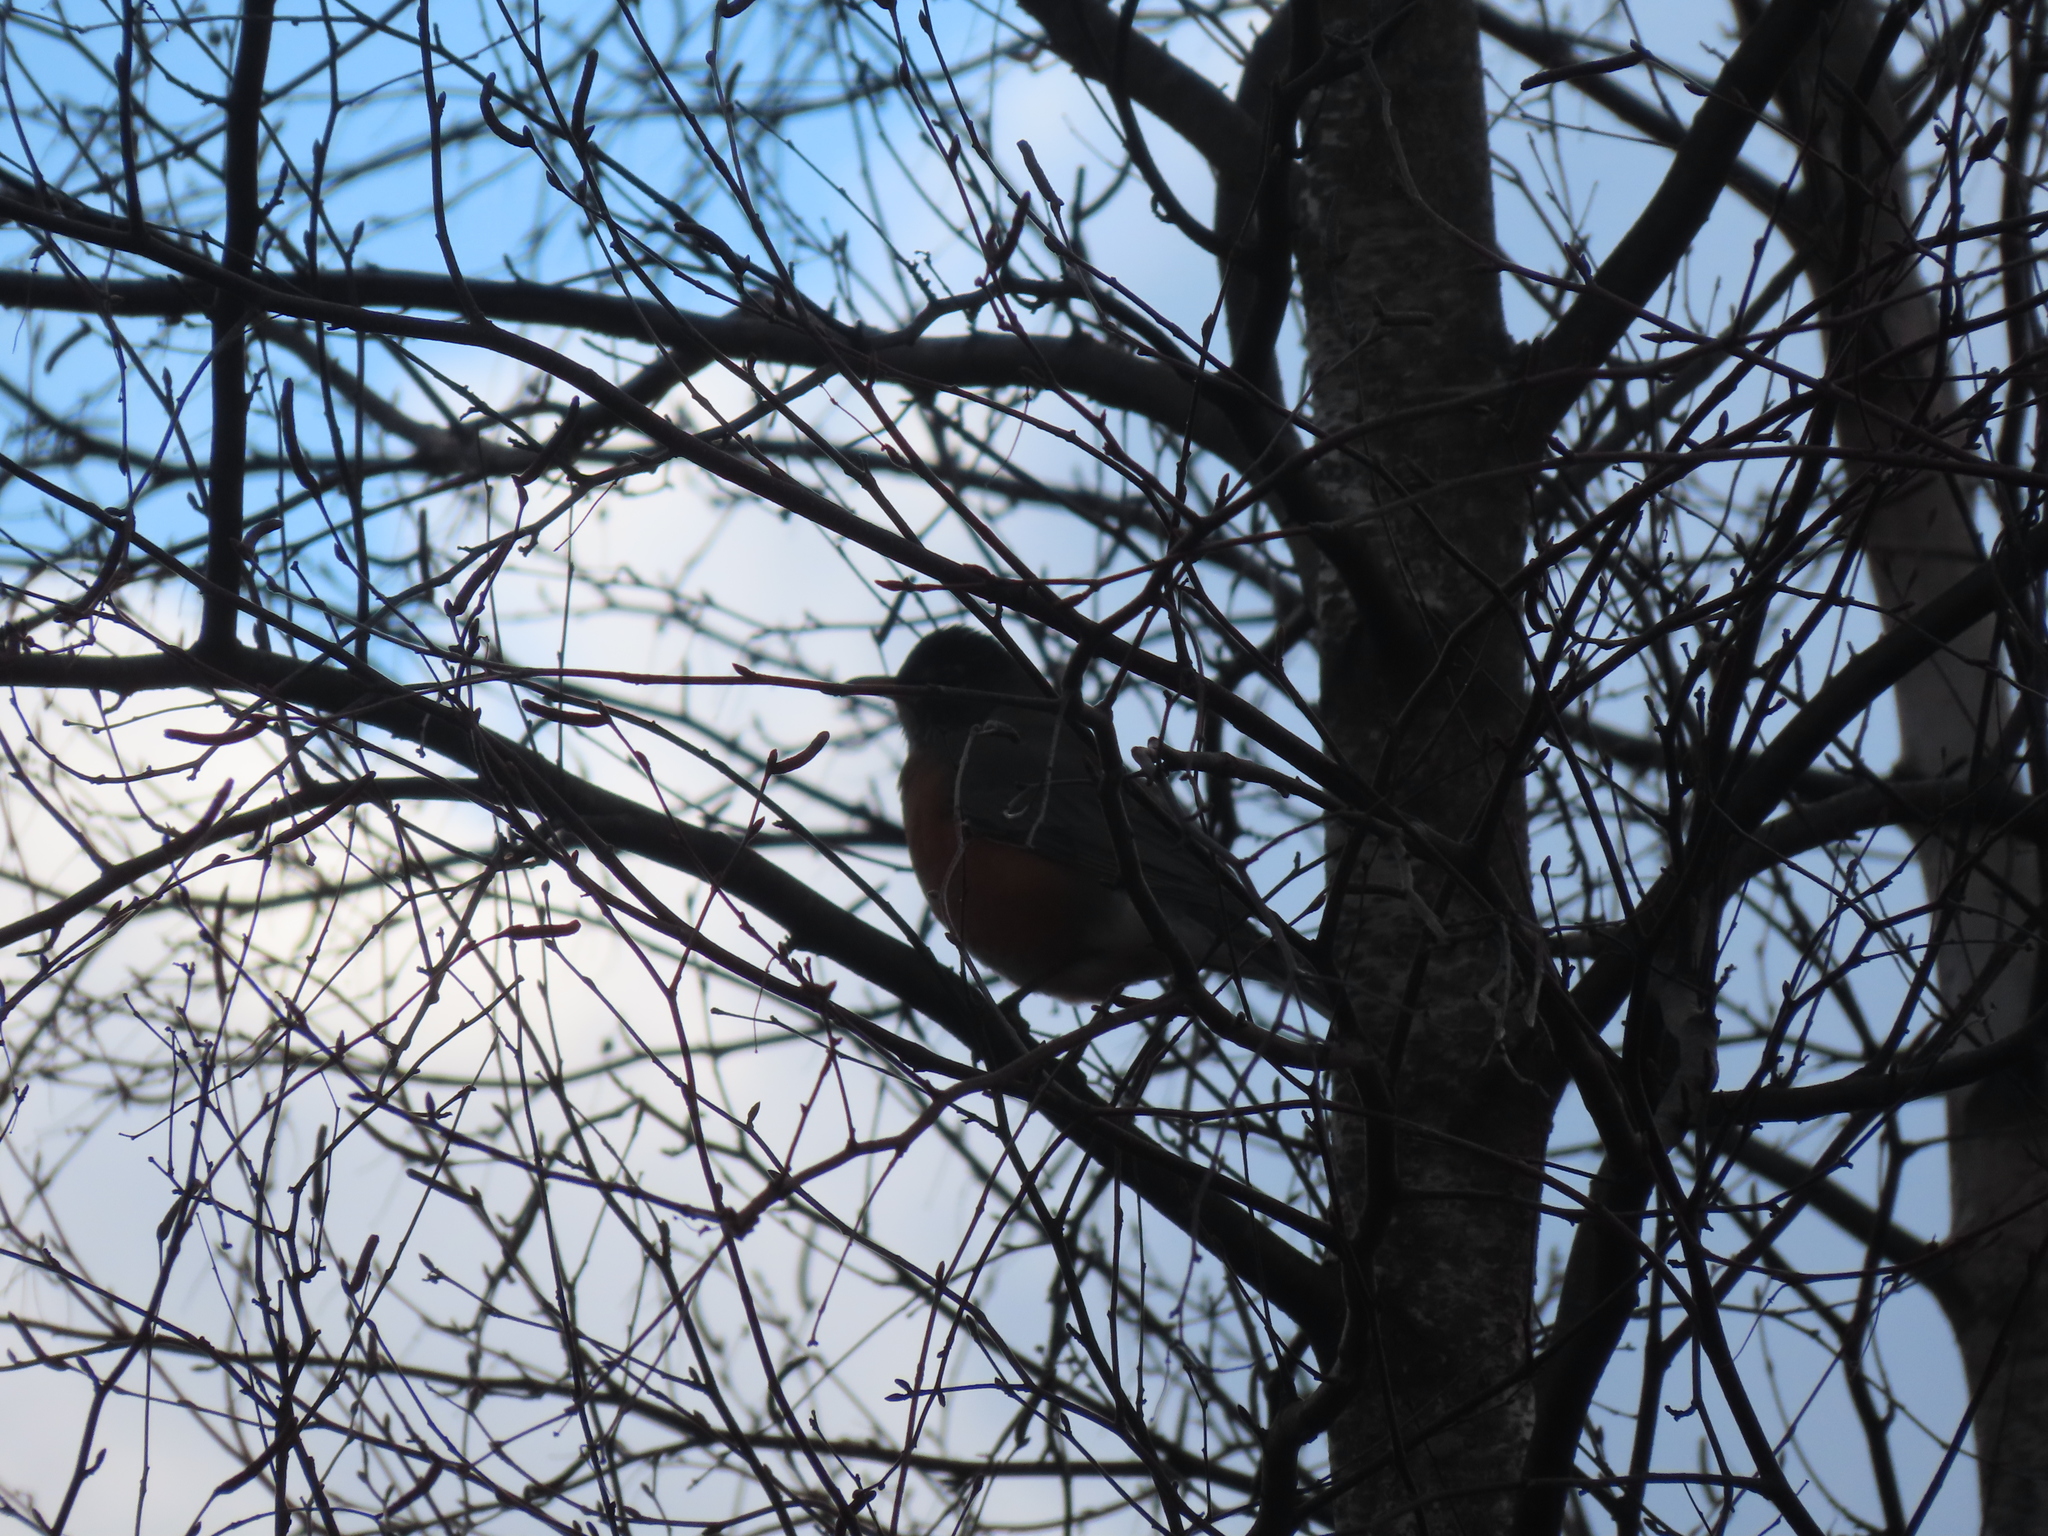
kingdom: Animalia
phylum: Chordata
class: Aves
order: Passeriformes
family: Turdidae
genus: Turdus
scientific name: Turdus migratorius
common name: American robin
